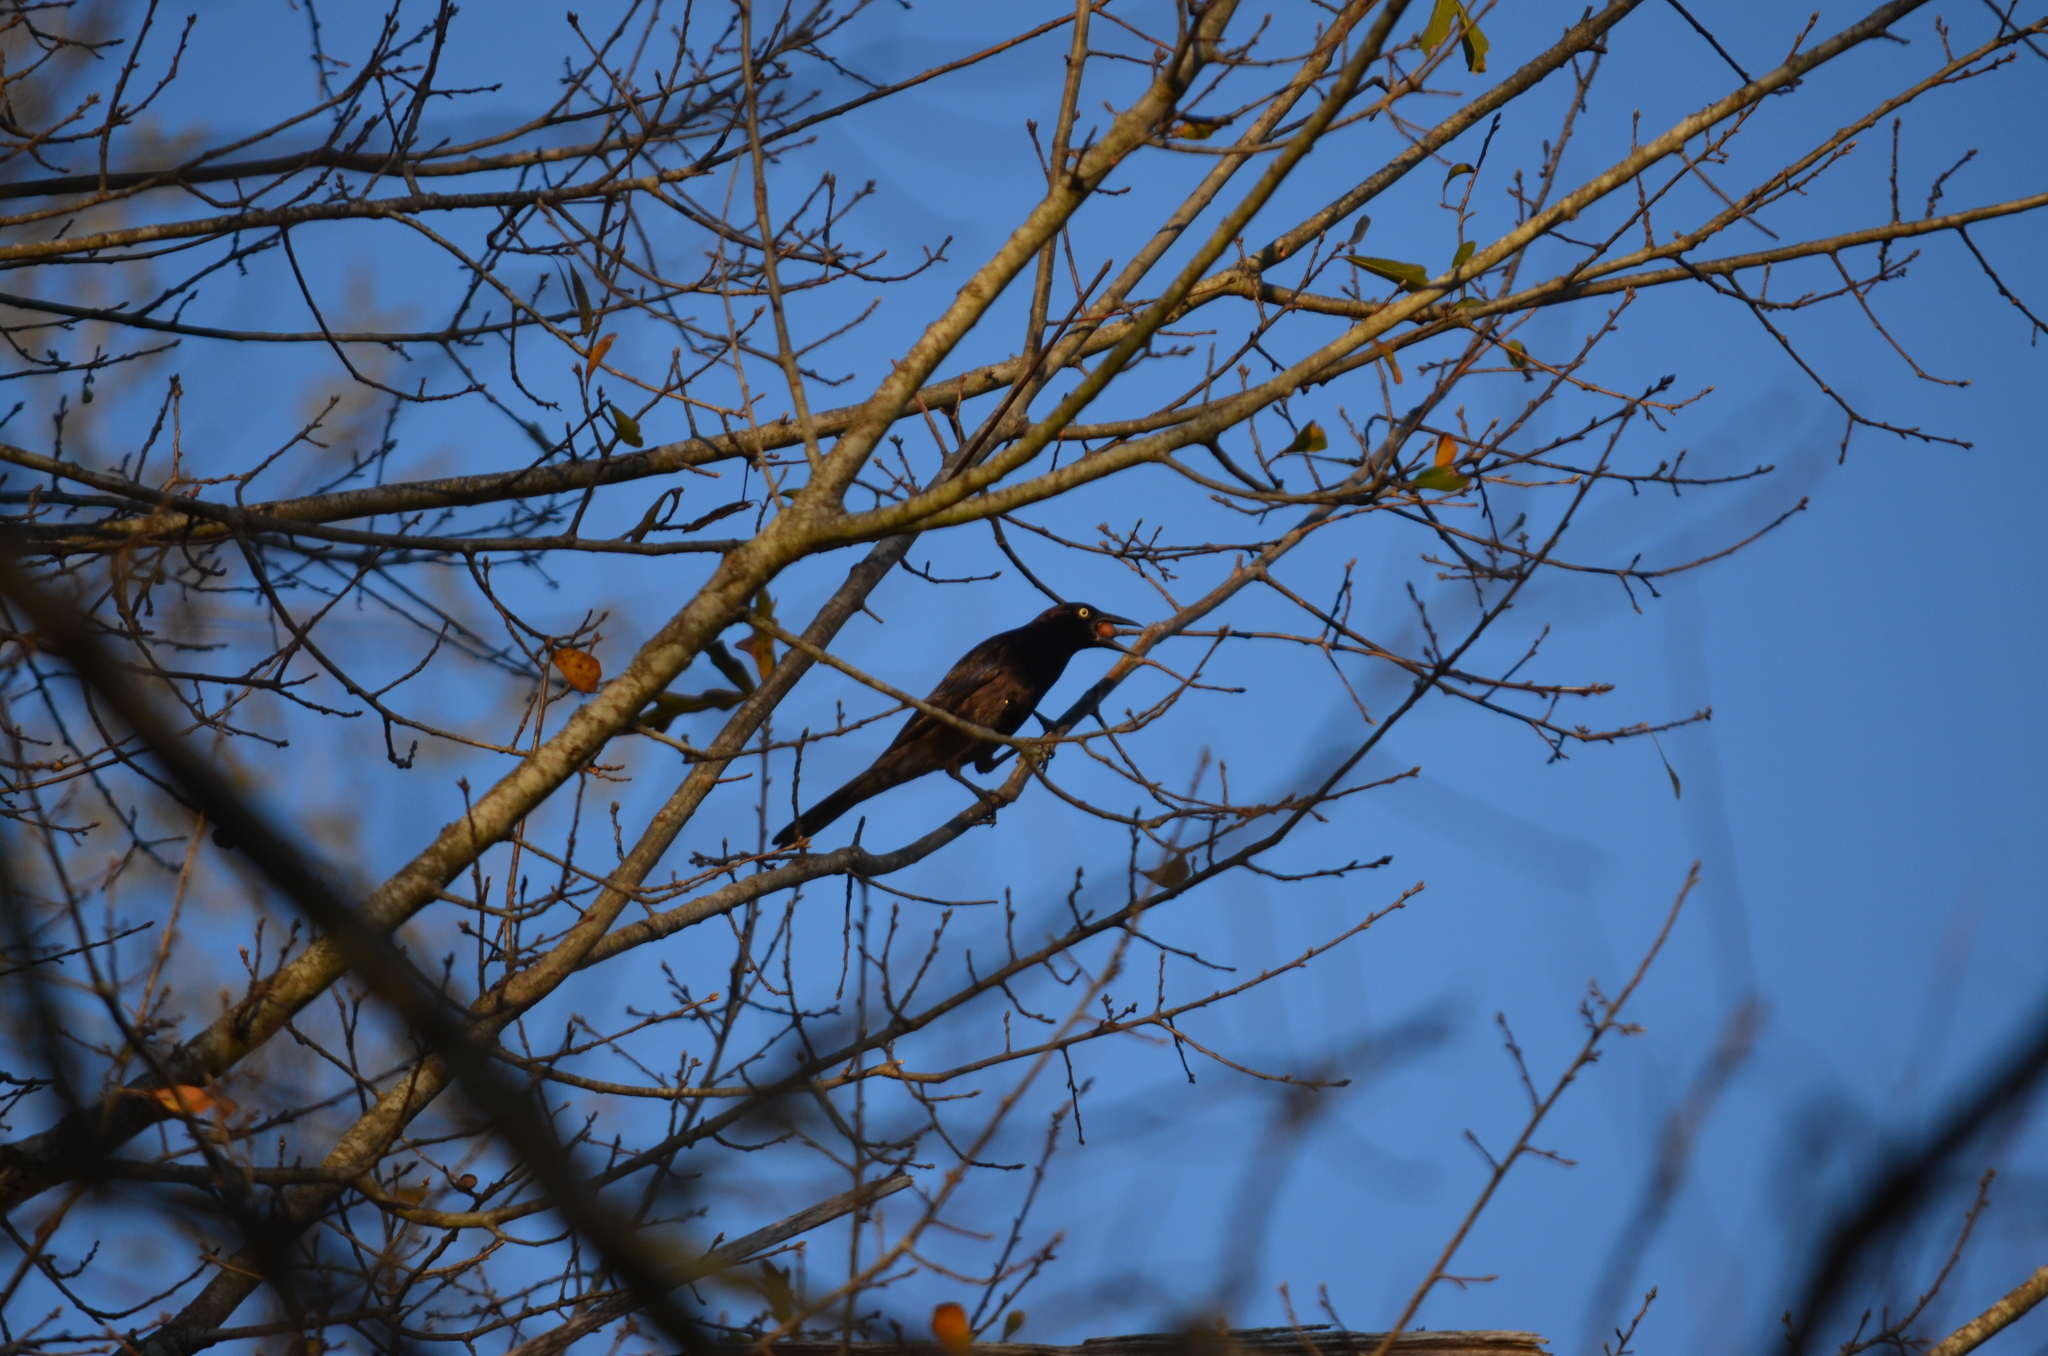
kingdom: Animalia
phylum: Chordata
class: Aves
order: Passeriformes
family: Icteridae
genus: Quiscalus
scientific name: Quiscalus quiscula
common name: Common grackle
